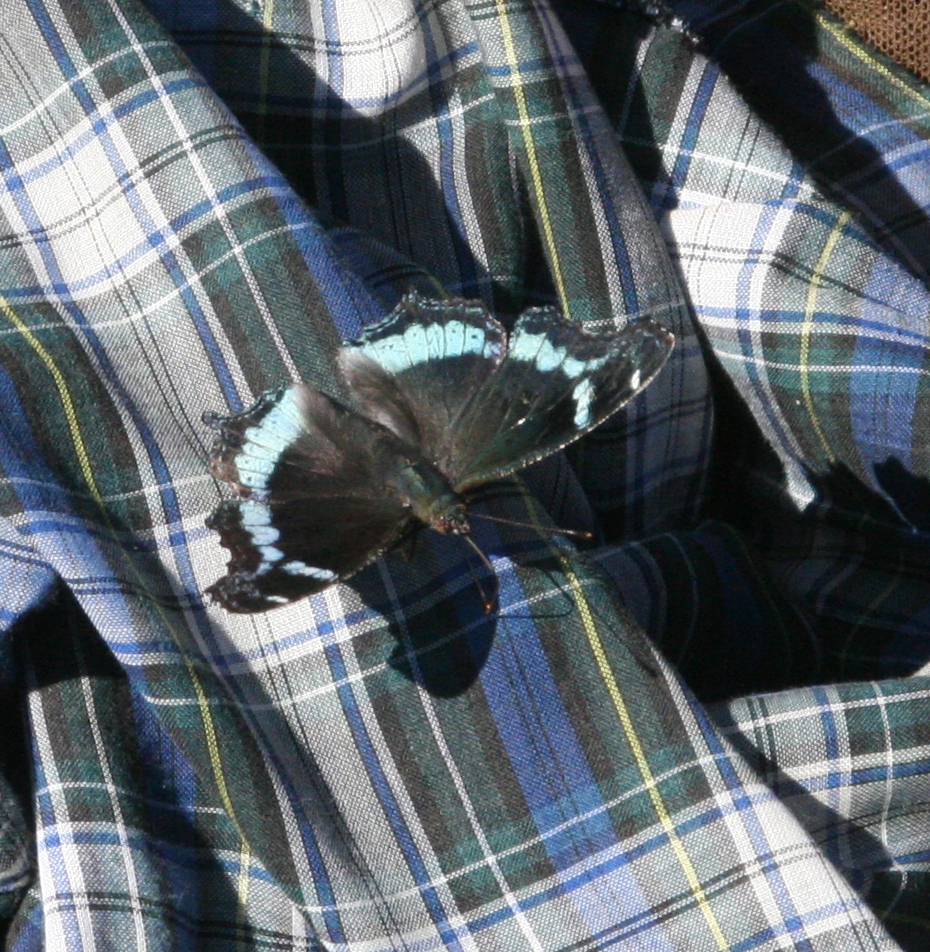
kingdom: Animalia
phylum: Arthropoda
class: Insecta
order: Lepidoptera
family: Nymphalidae
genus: Vanessa
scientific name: Vanessa Kaniska canace
